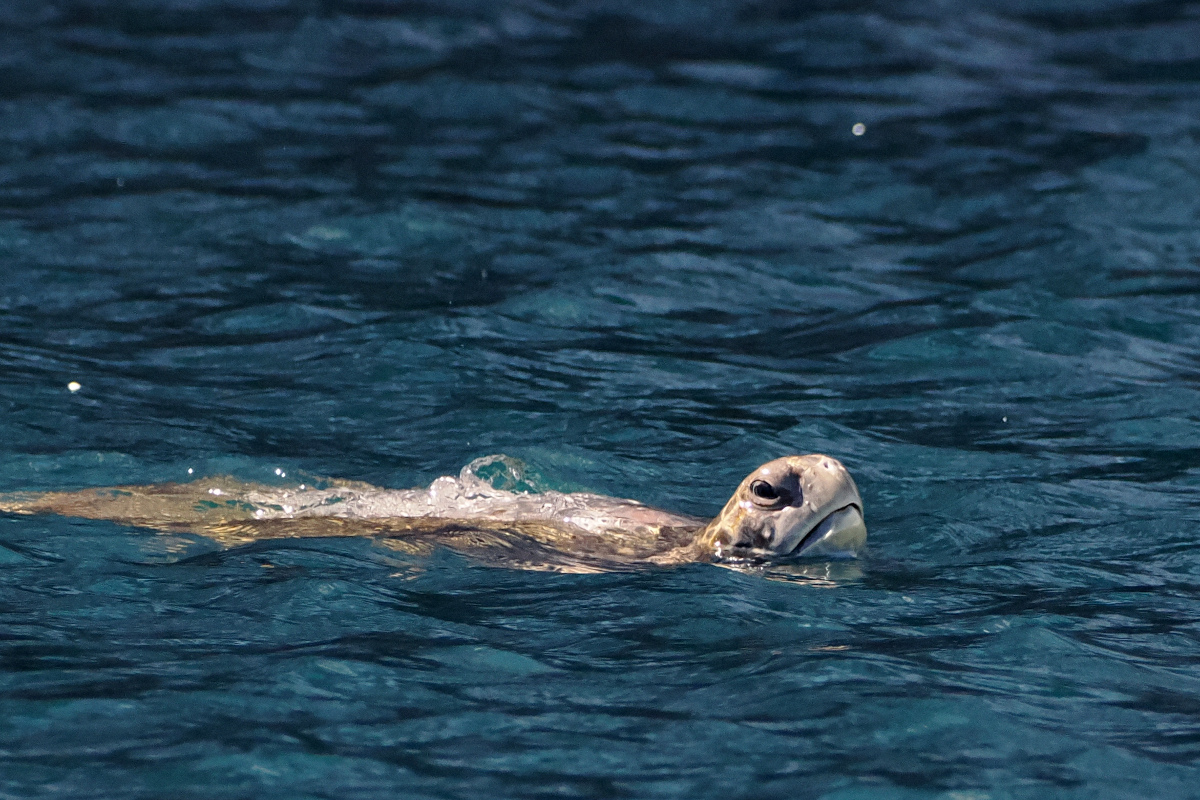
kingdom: Animalia
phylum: Chordata
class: Testudines
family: Cheloniidae
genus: Chelonia
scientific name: Chelonia mydas
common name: Green turtle
